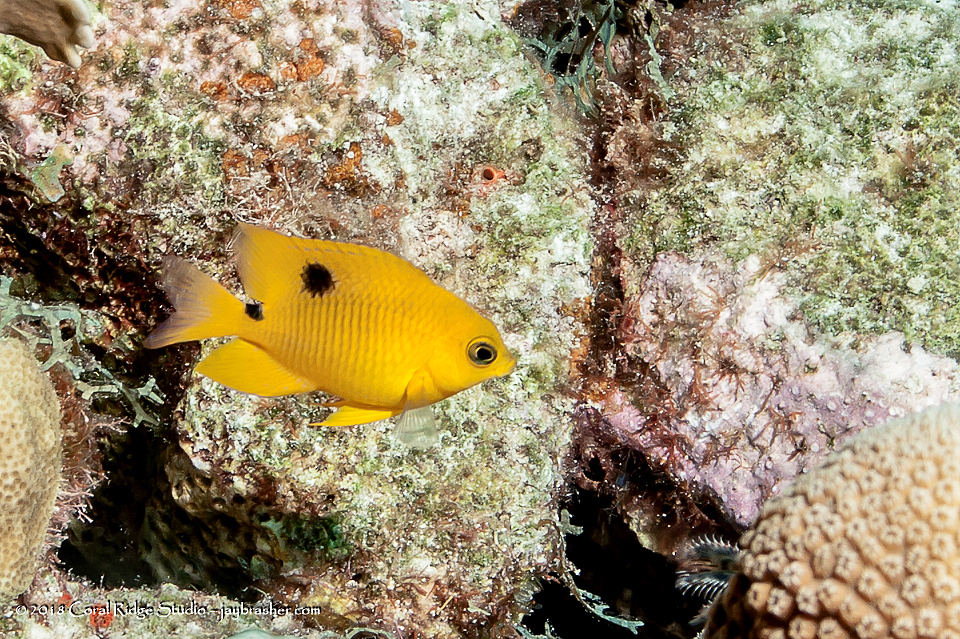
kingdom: Animalia
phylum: Chordata
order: Perciformes
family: Pomacentridae
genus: Stegastes
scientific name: Stegastes planifrons
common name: Threespot damselfish
